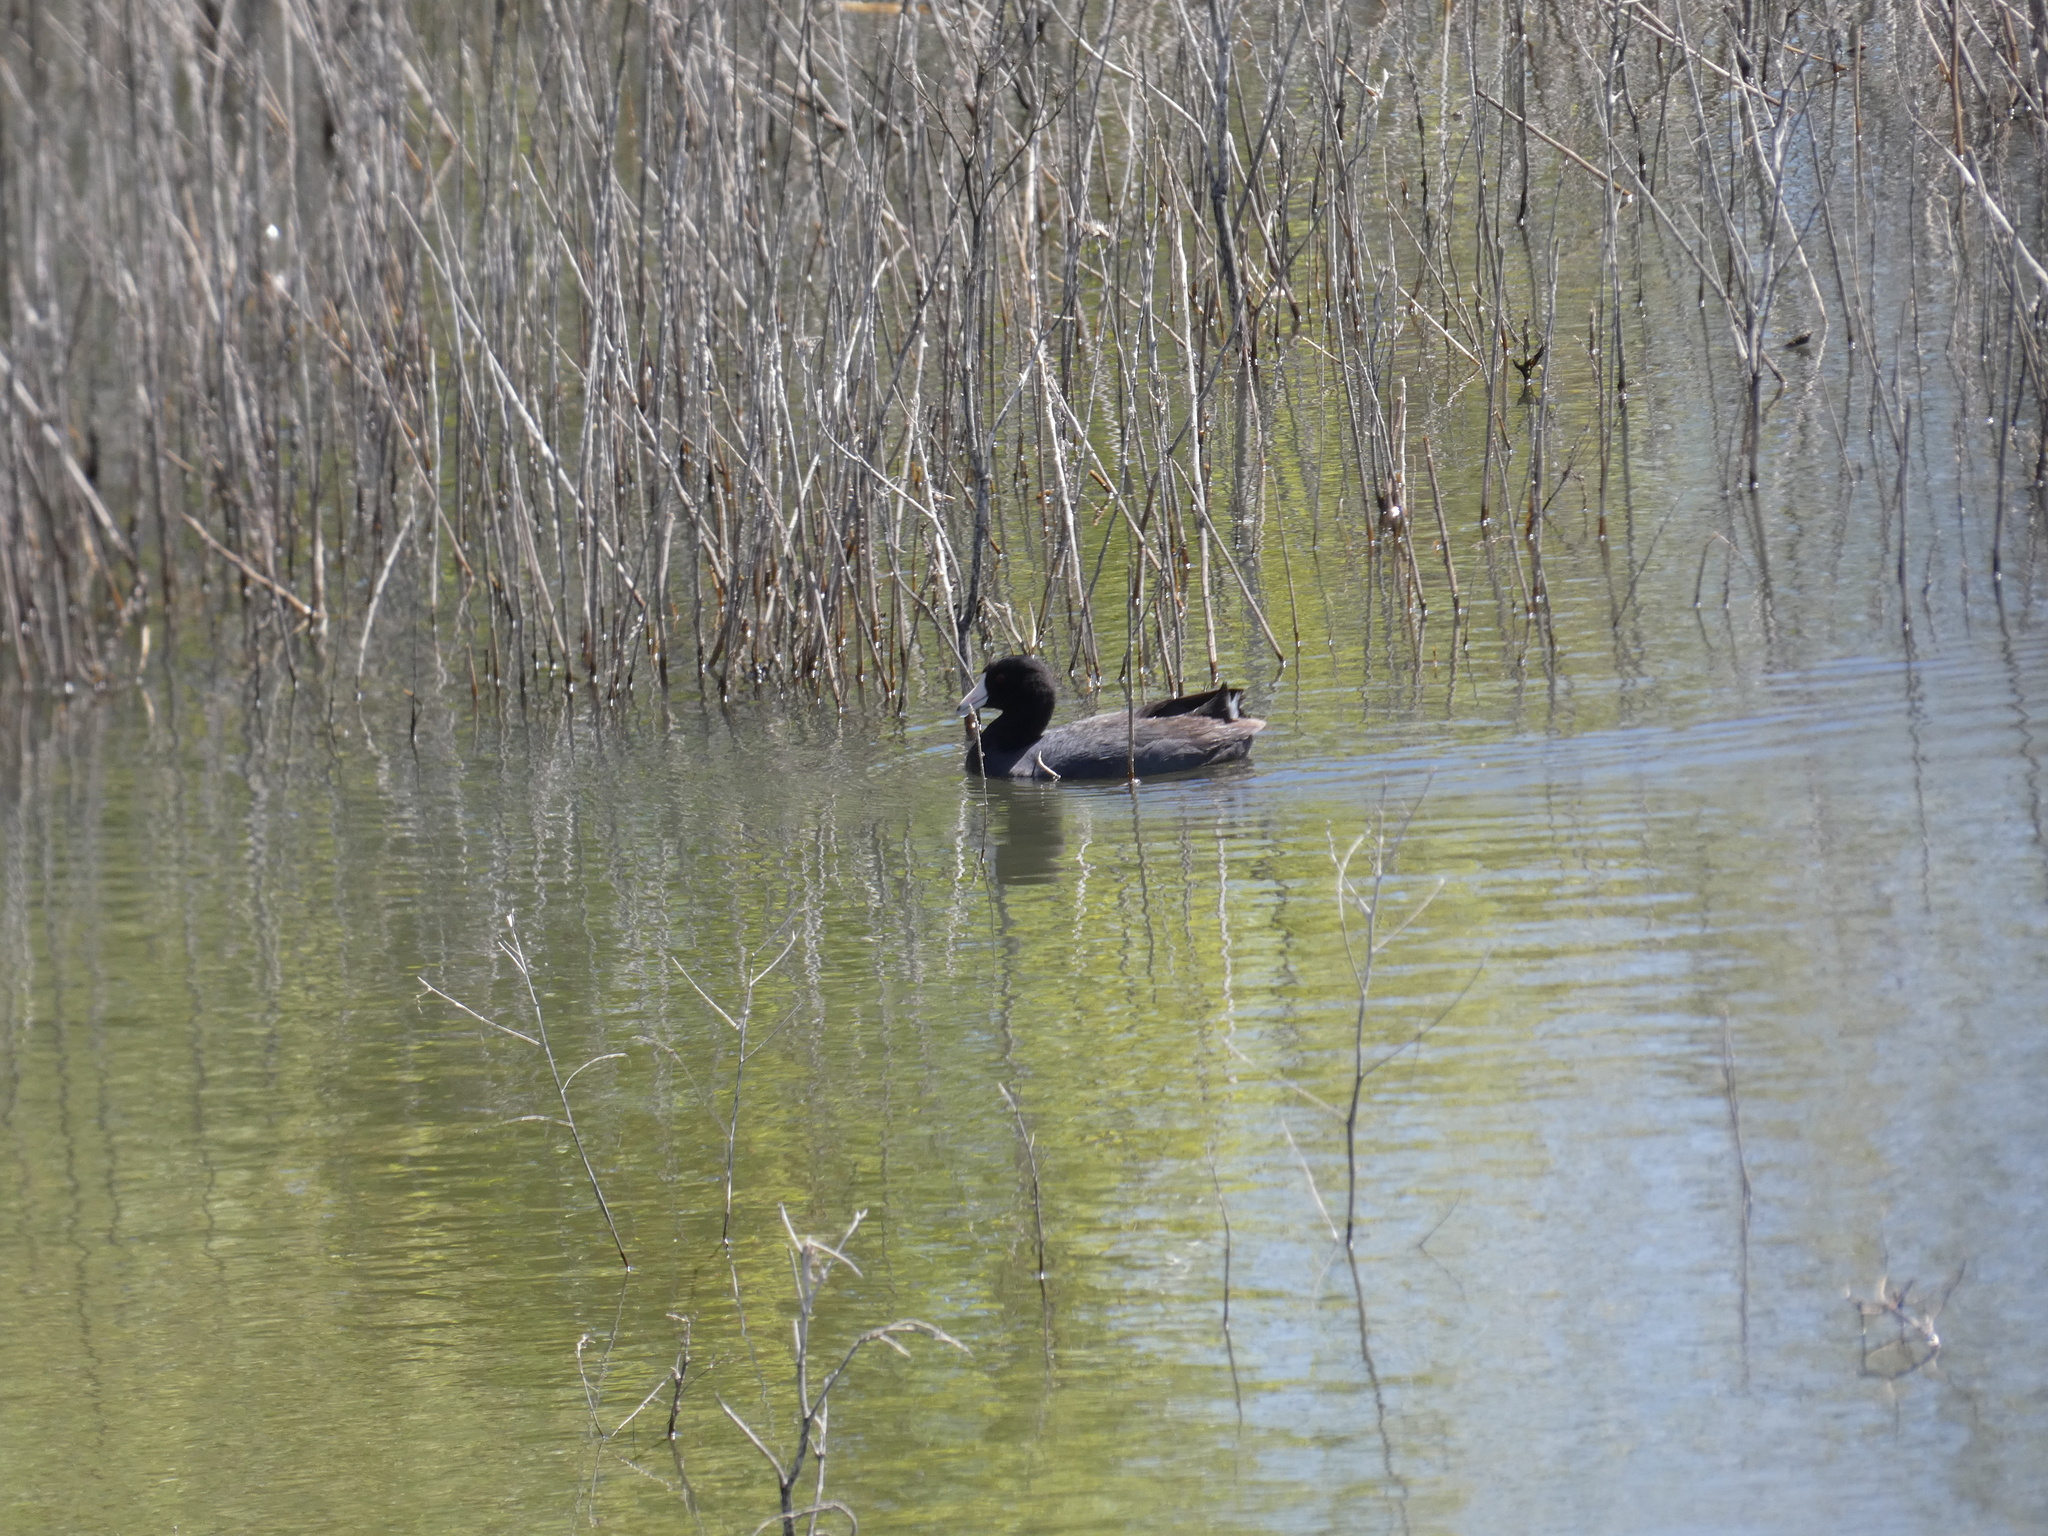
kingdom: Animalia
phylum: Chordata
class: Aves
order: Gruiformes
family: Rallidae
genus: Fulica
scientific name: Fulica americana
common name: American coot
